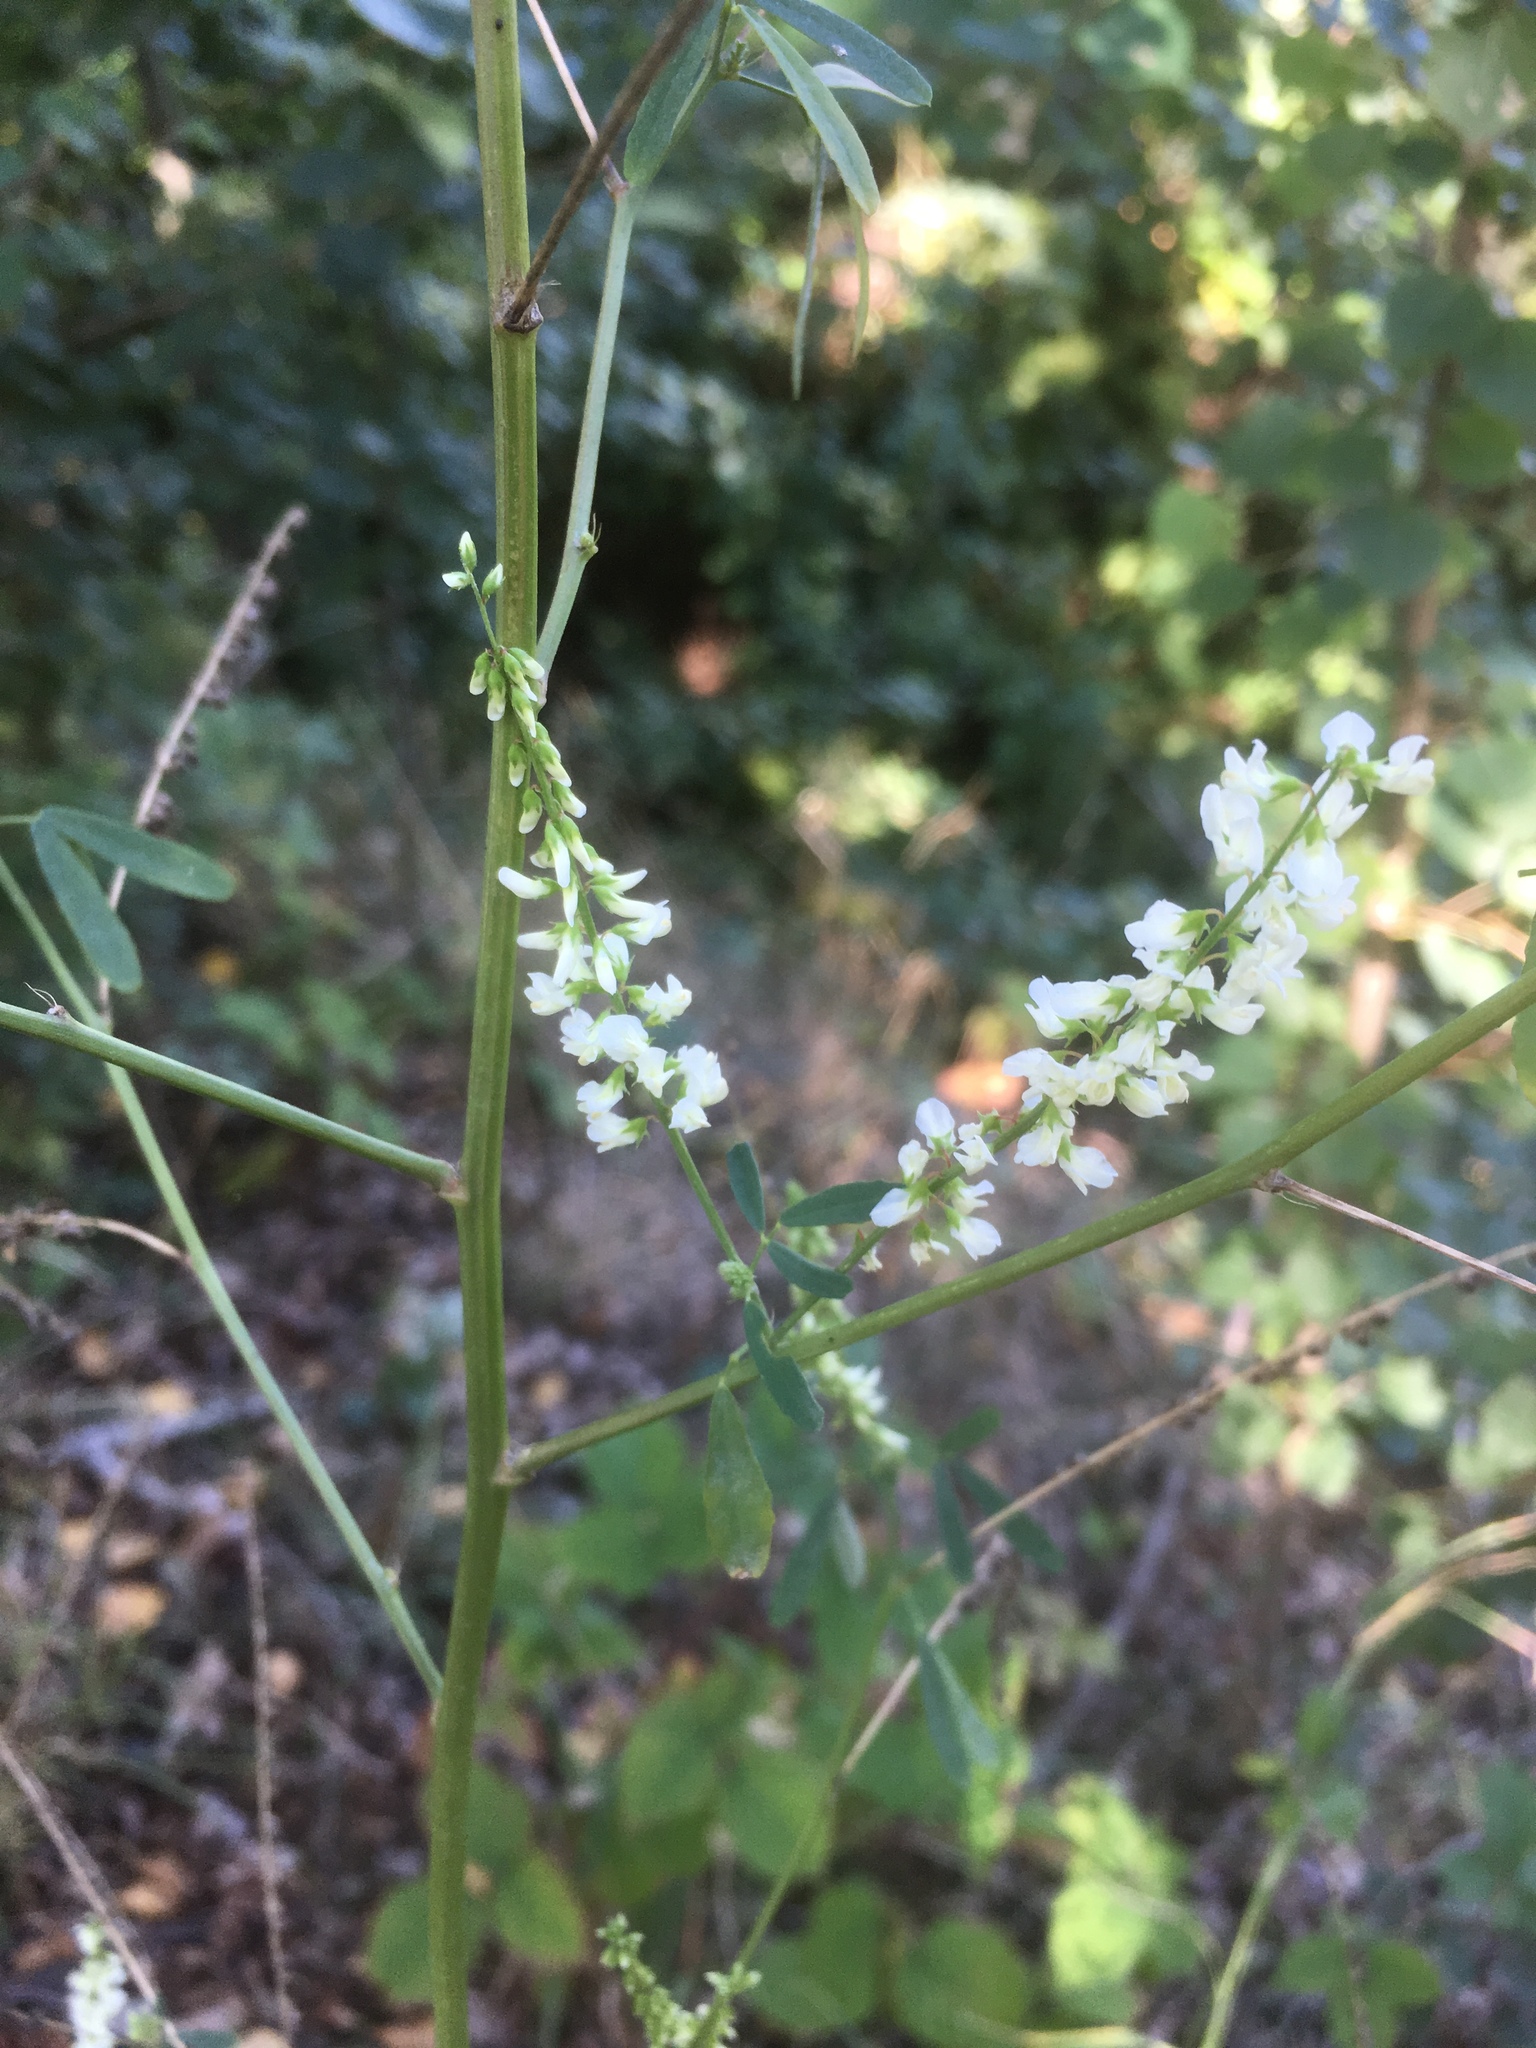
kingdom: Plantae
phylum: Tracheophyta
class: Magnoliopsida
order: Fabales
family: Fabaceae
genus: Melilotus
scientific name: Melilotus albus
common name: White melilot
